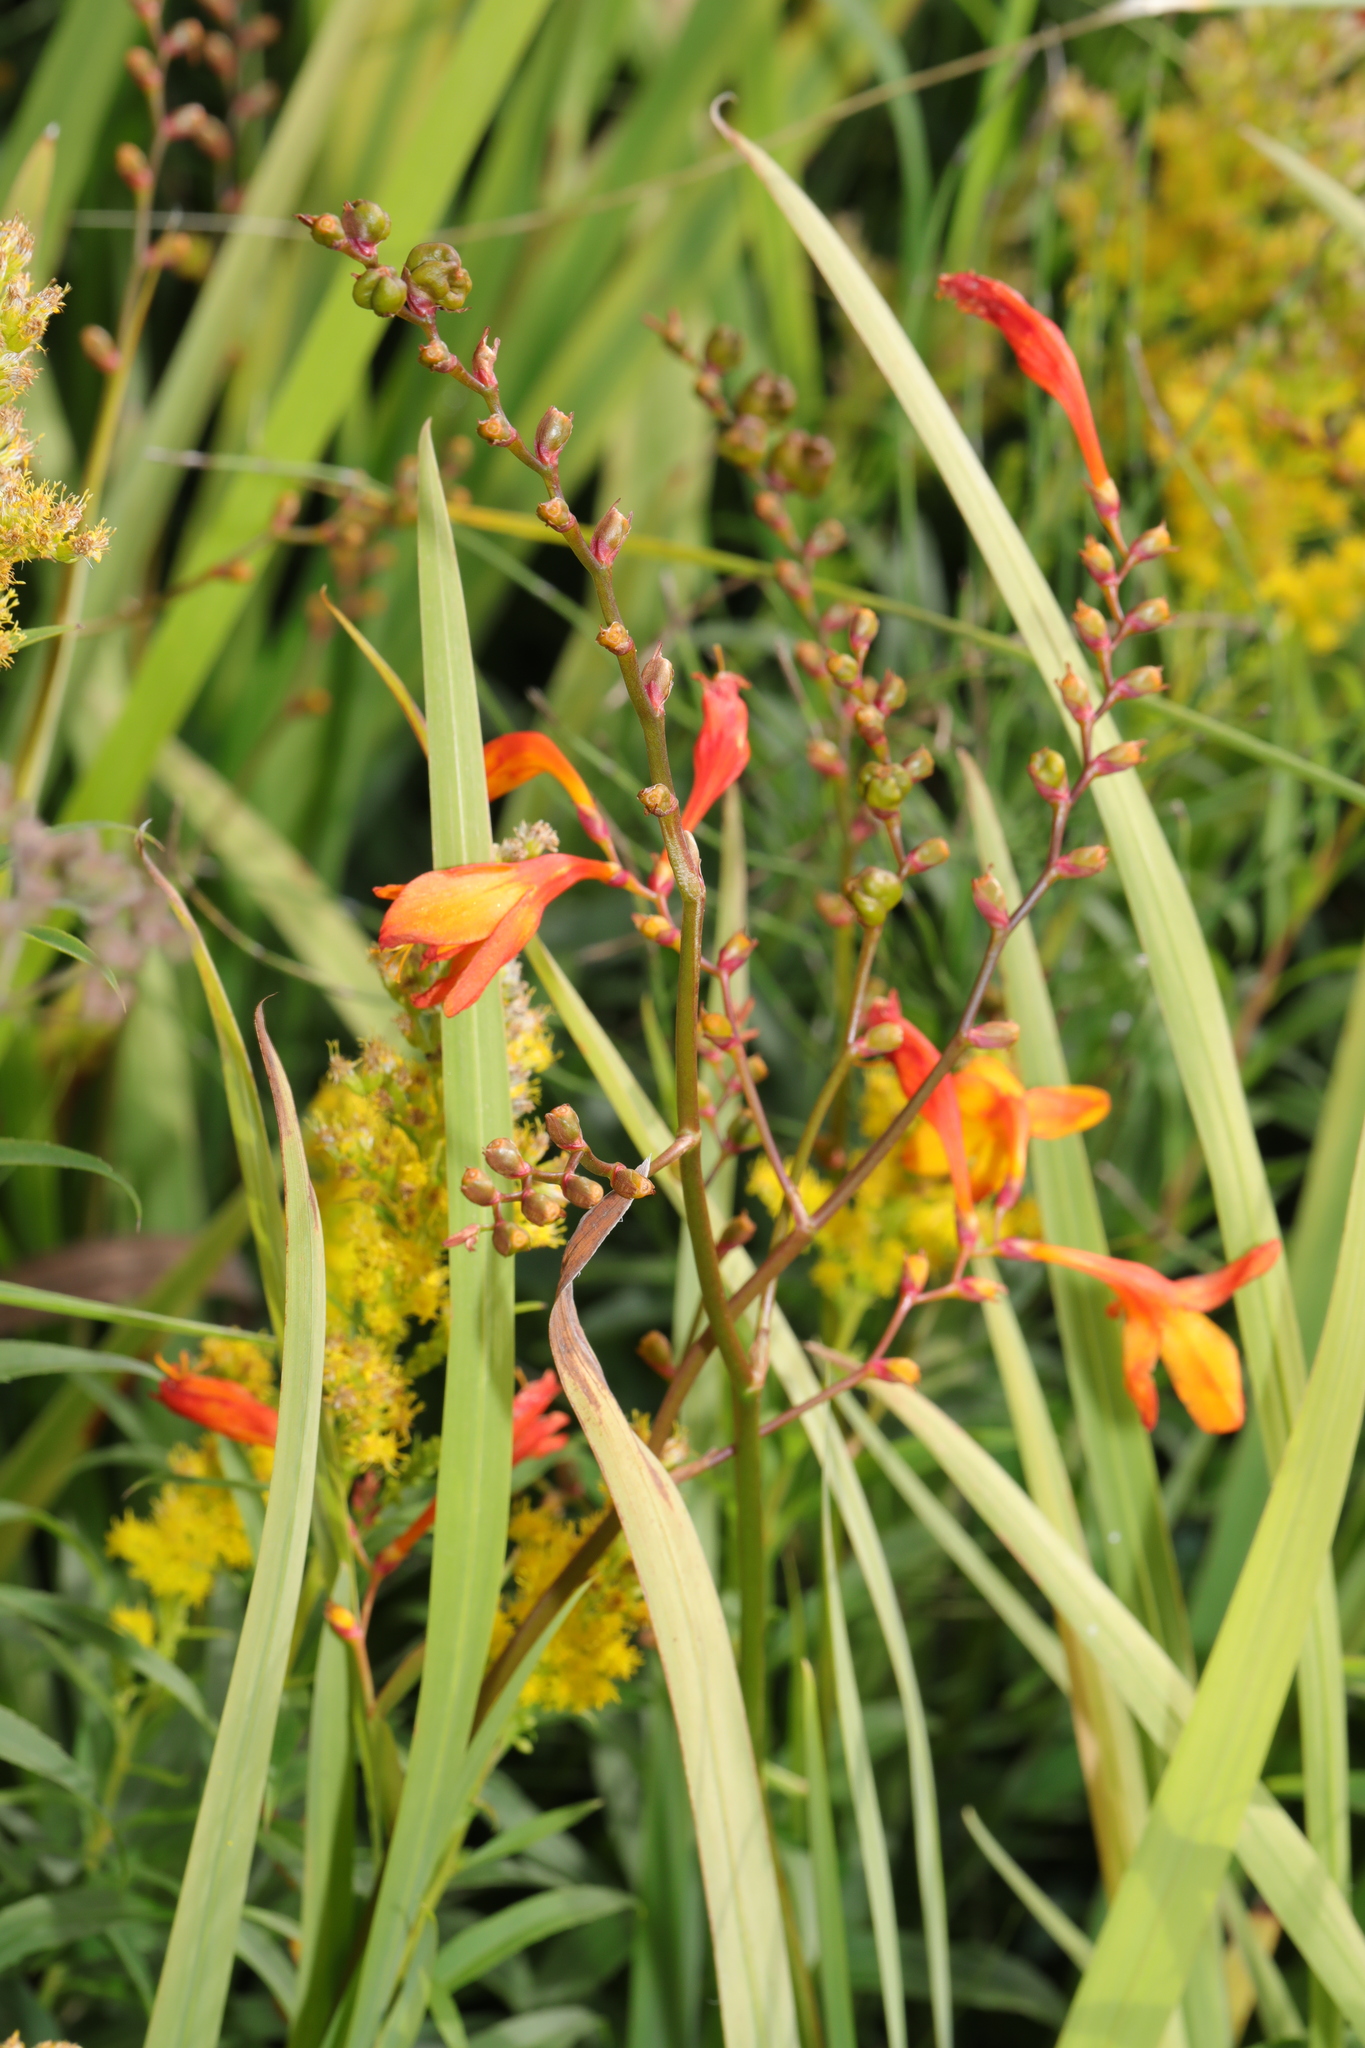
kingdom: Plantae
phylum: Tracheophyta
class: Liliopsida
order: Asparagales
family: Iridaceae
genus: Crocosmia
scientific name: Crocosmia crocosmiiflora
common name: Montbretia
